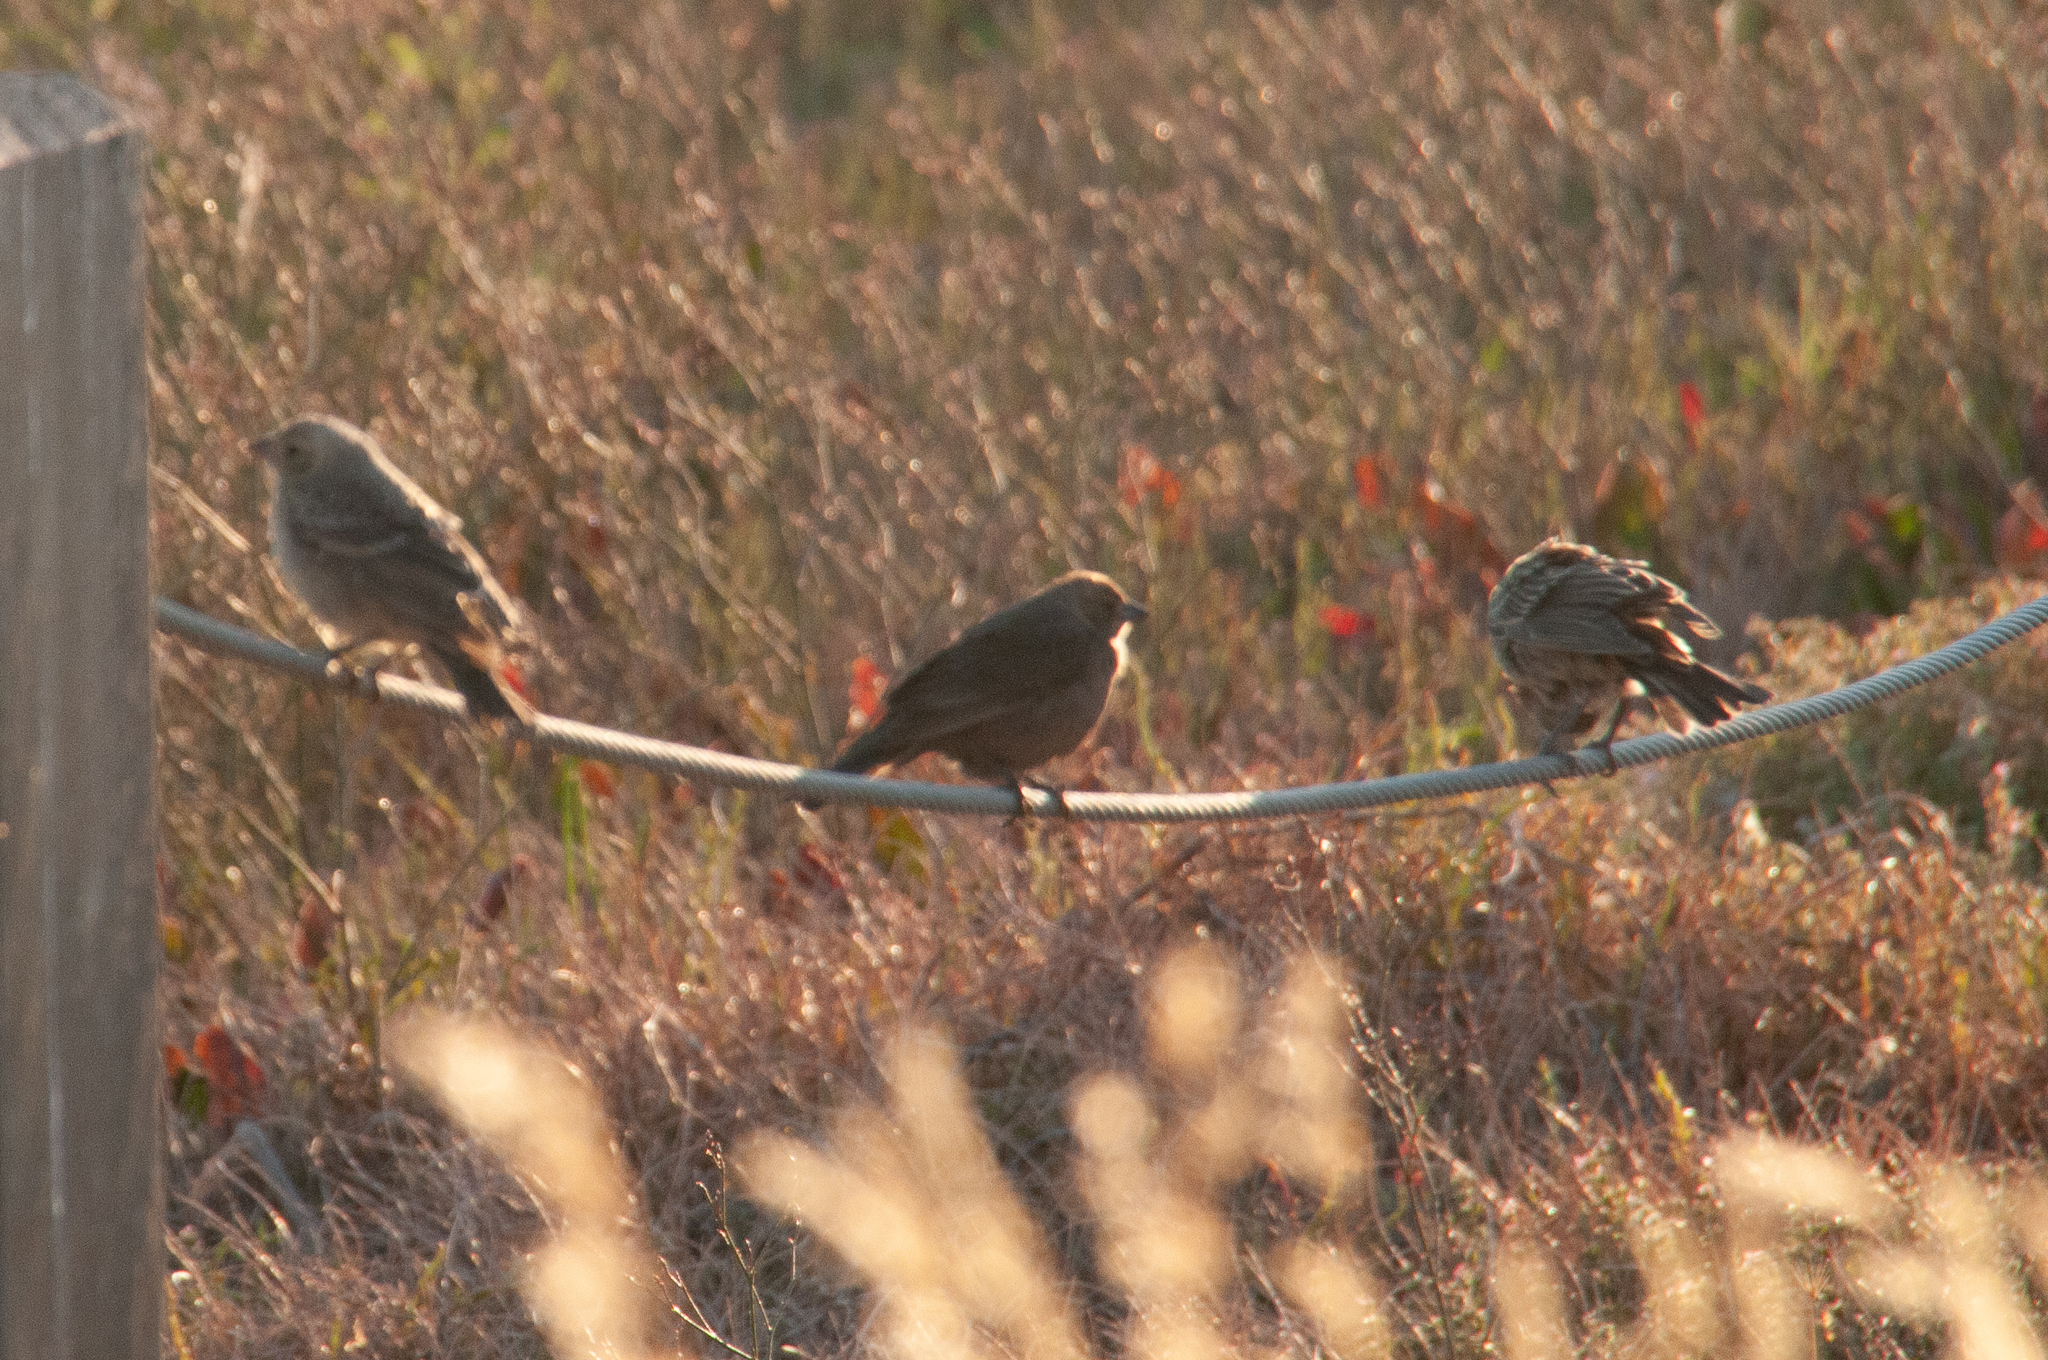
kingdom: Animalia
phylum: Chordata
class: Aves
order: Passeriformes
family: Icteridae
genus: Molothrus
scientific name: Molothrus ater
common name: Brown-headed cowbird
